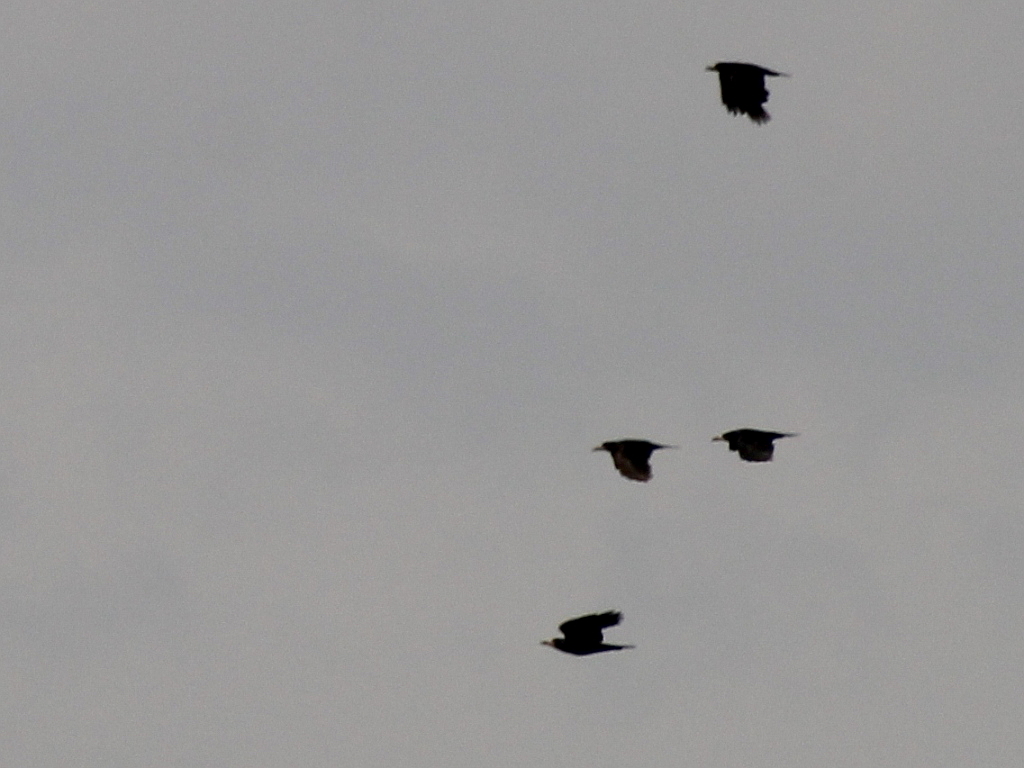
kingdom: Animalia
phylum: Chordata
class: Aves
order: Passeriformes
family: Corvidae
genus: Corvus
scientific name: Corvus frugilegus
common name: Rook
